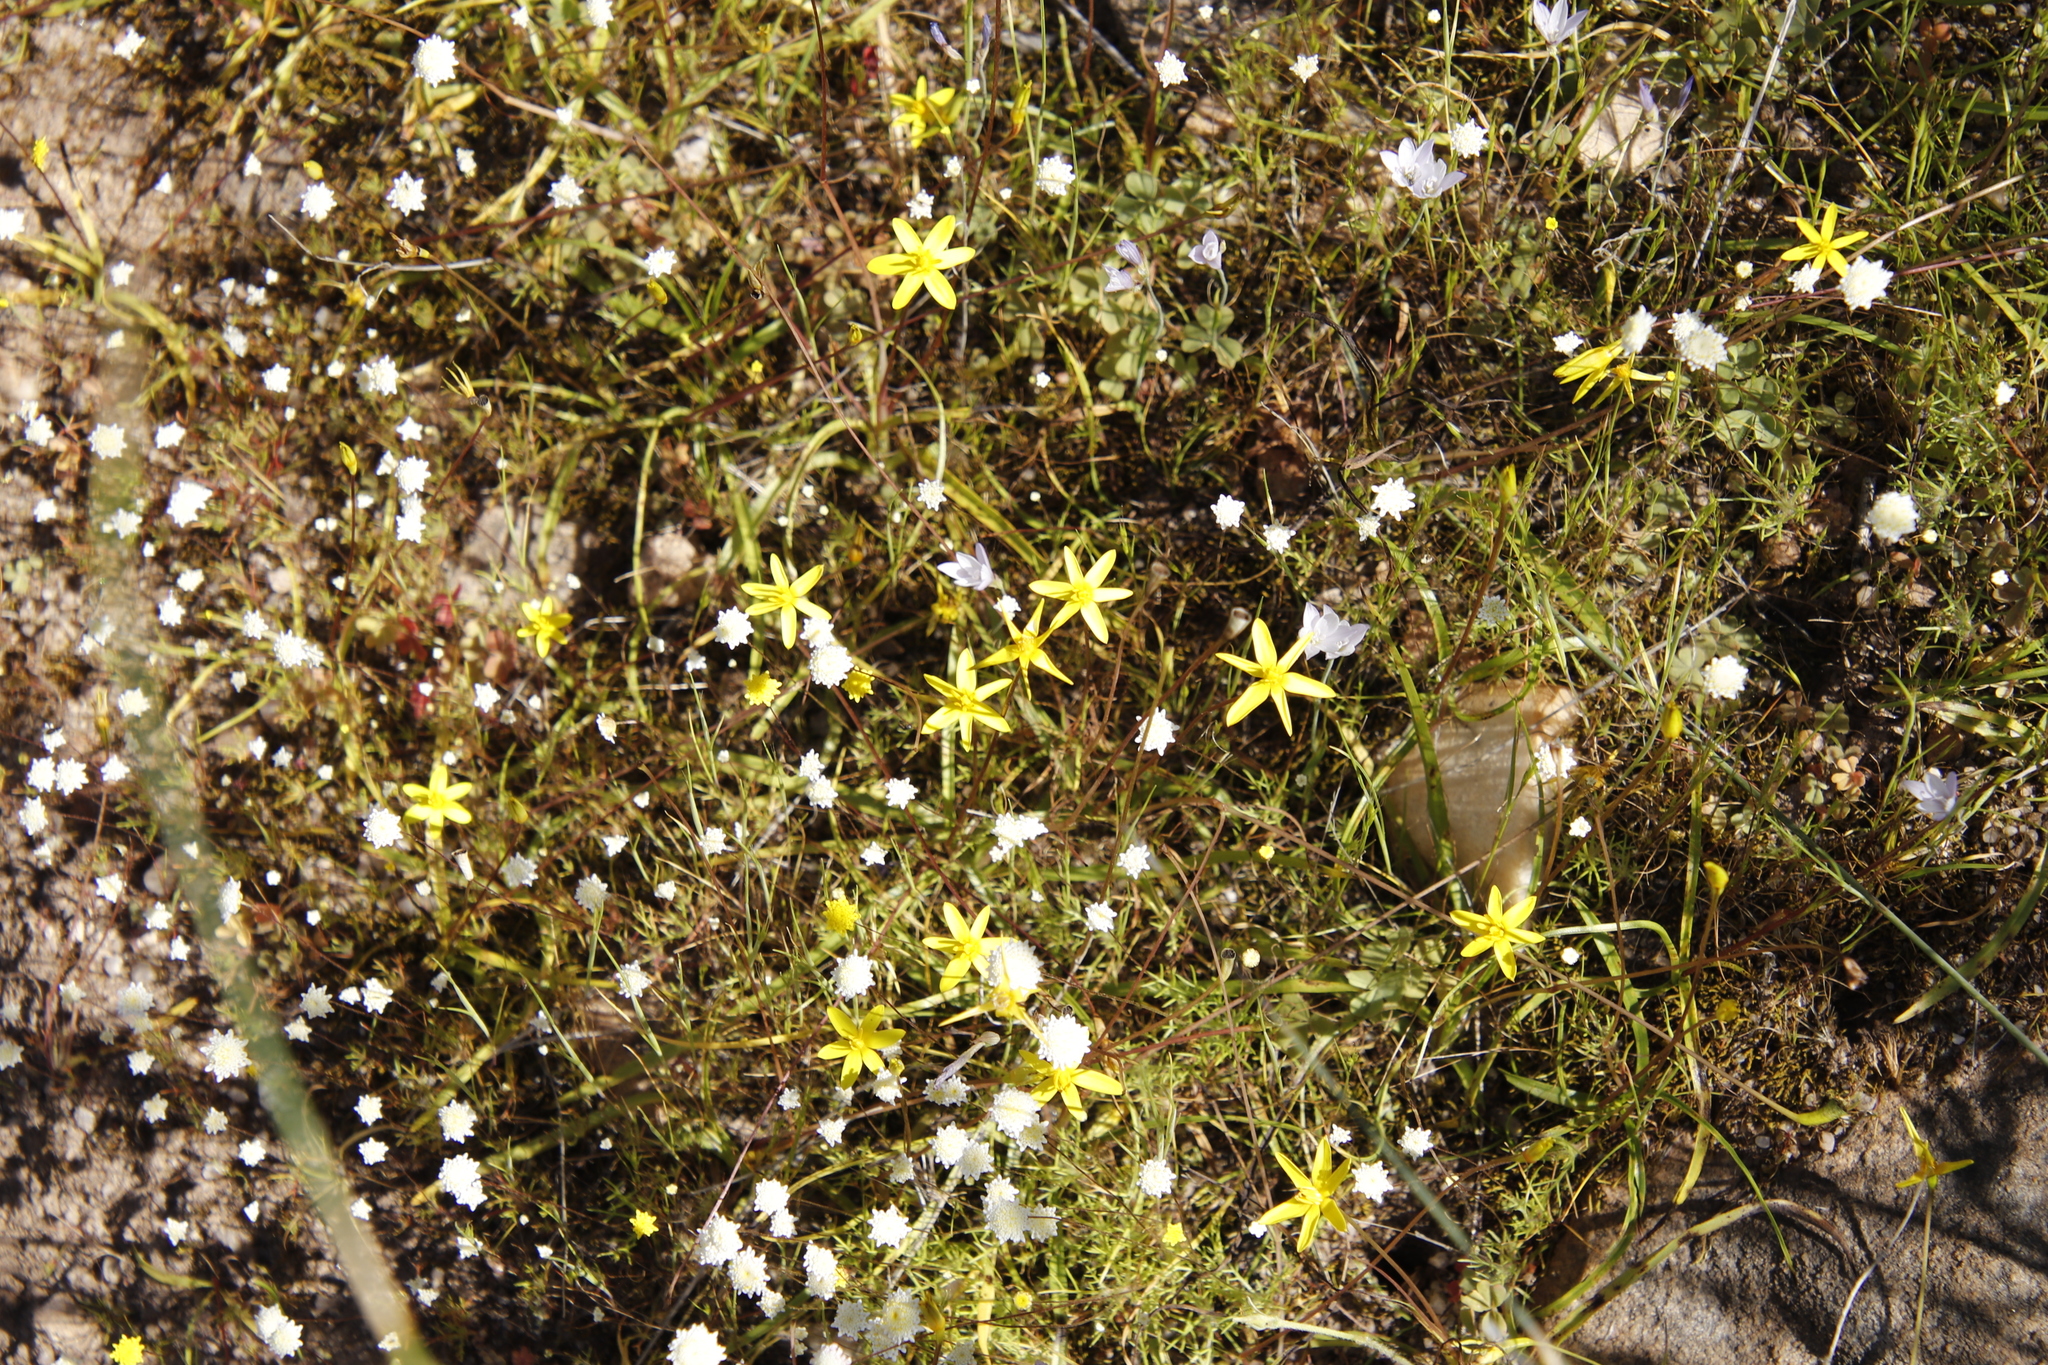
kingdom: Plantae
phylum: Tracheophyta
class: Liliopsida
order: Asparagales
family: Hypoxidaceae
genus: Pauridia
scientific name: Pauridia gracilipes
